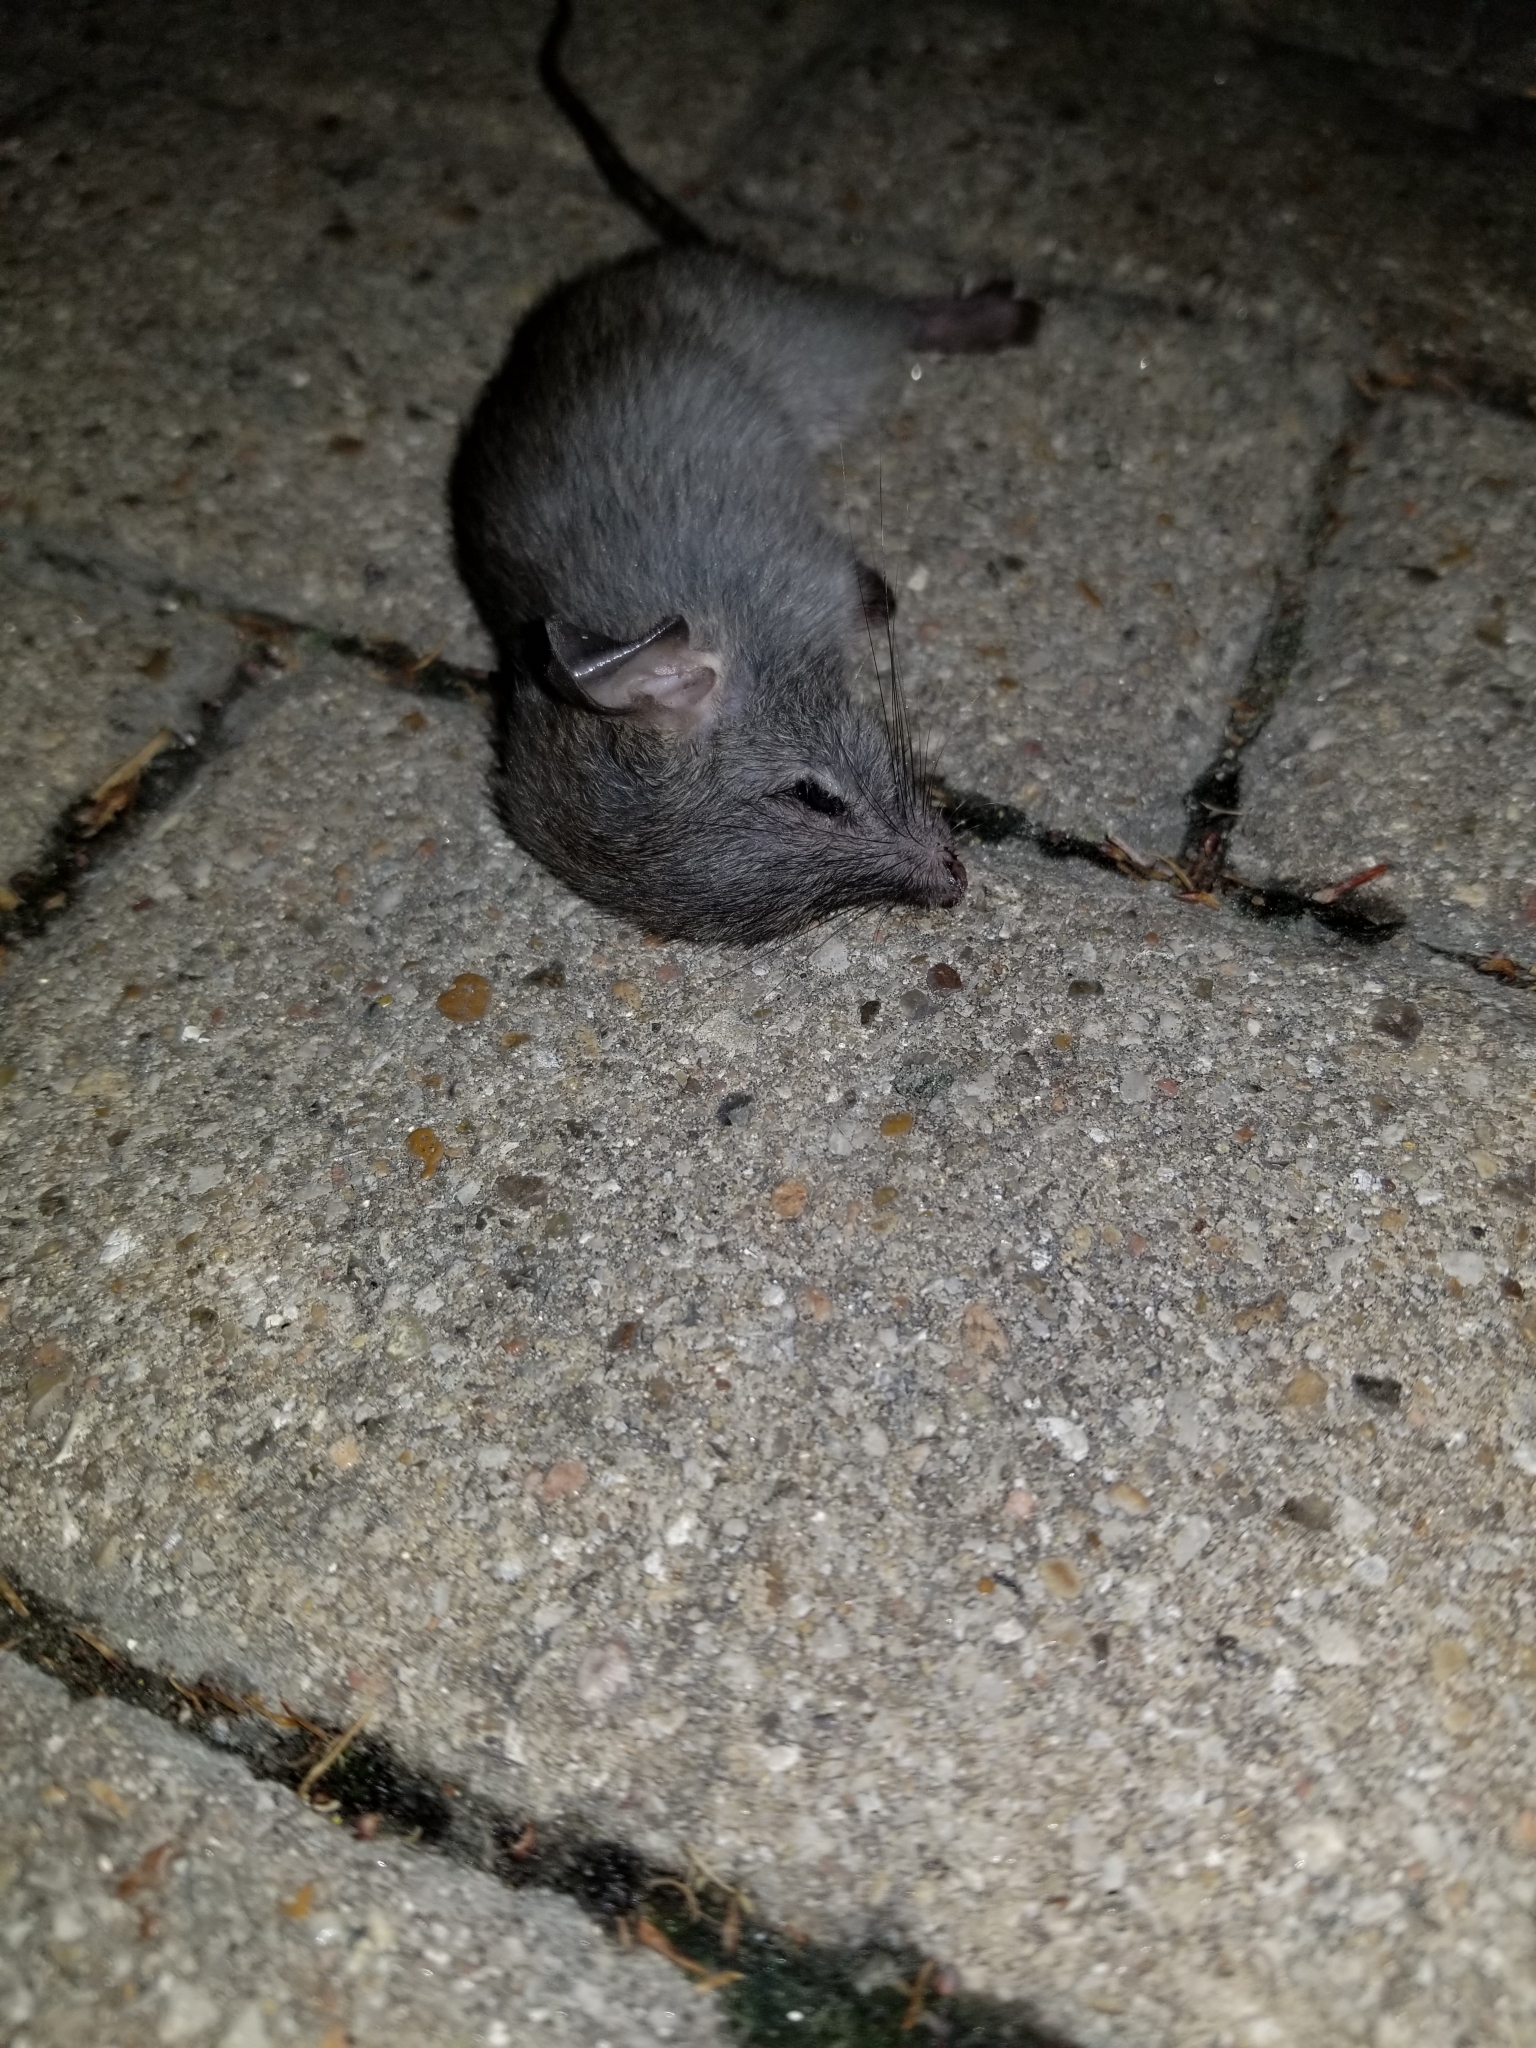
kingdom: Animalia
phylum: Chordata
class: Mammalia
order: Rodentia
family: Muridae
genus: Mus
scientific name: Mus musculus
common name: House mouse
